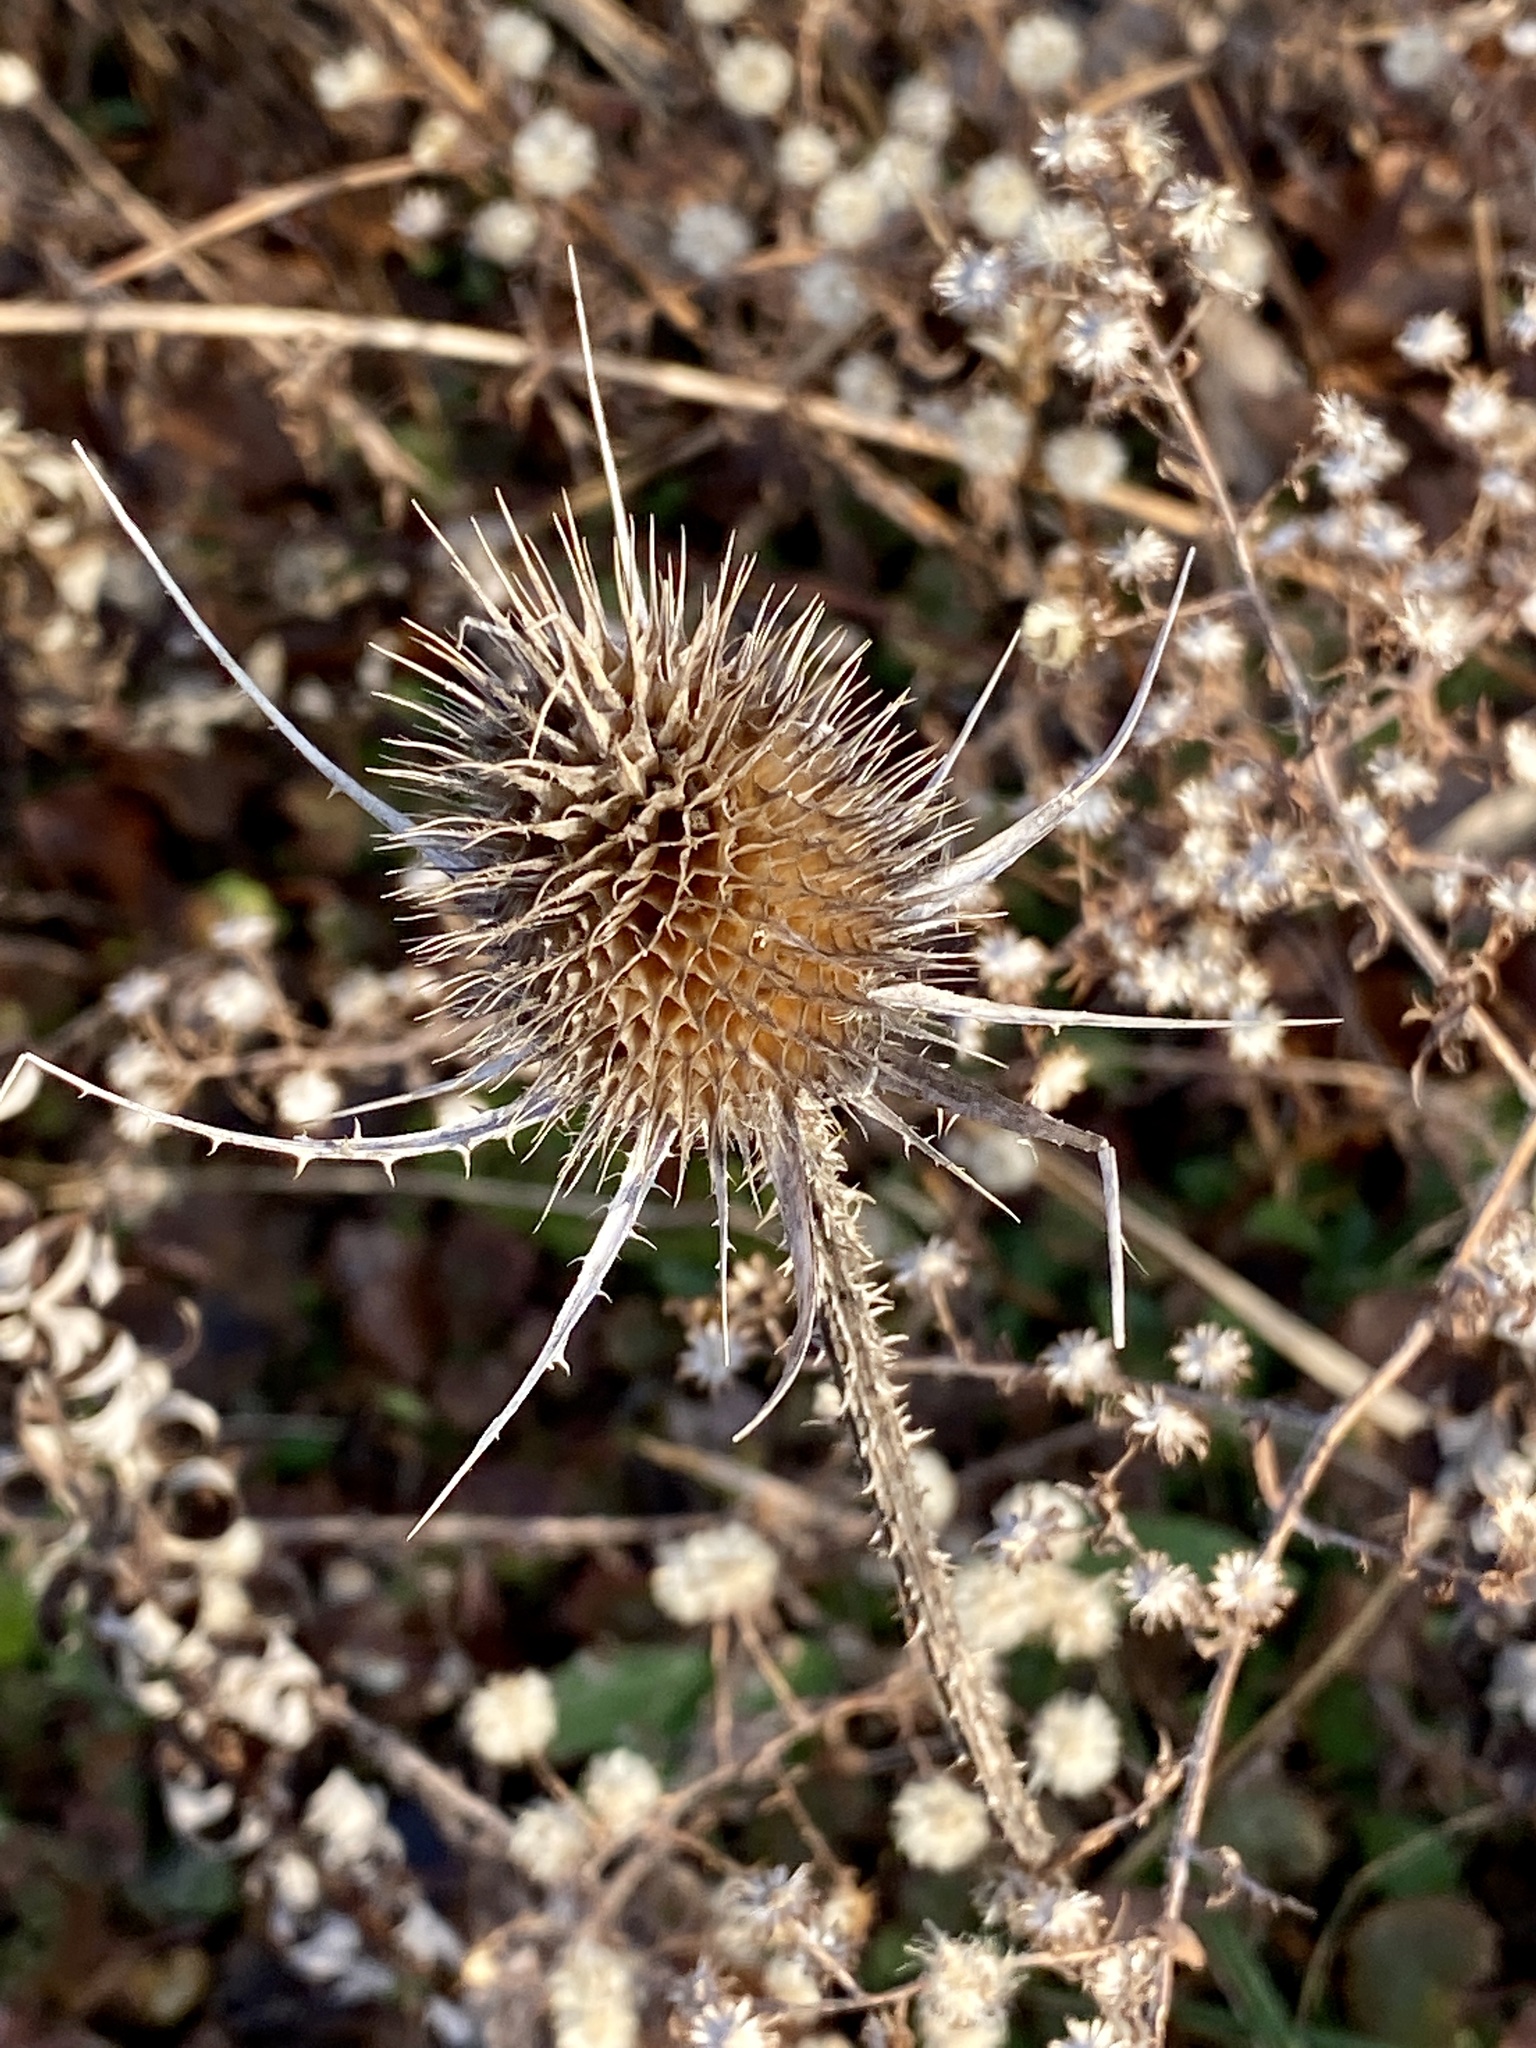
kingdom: Plantae
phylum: Tracheophyta
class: Magnoliopsida
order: Dipsacales
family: Caprifoliaceae
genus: Dipsacus
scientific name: Dipsacus fullonum
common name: Teasel
